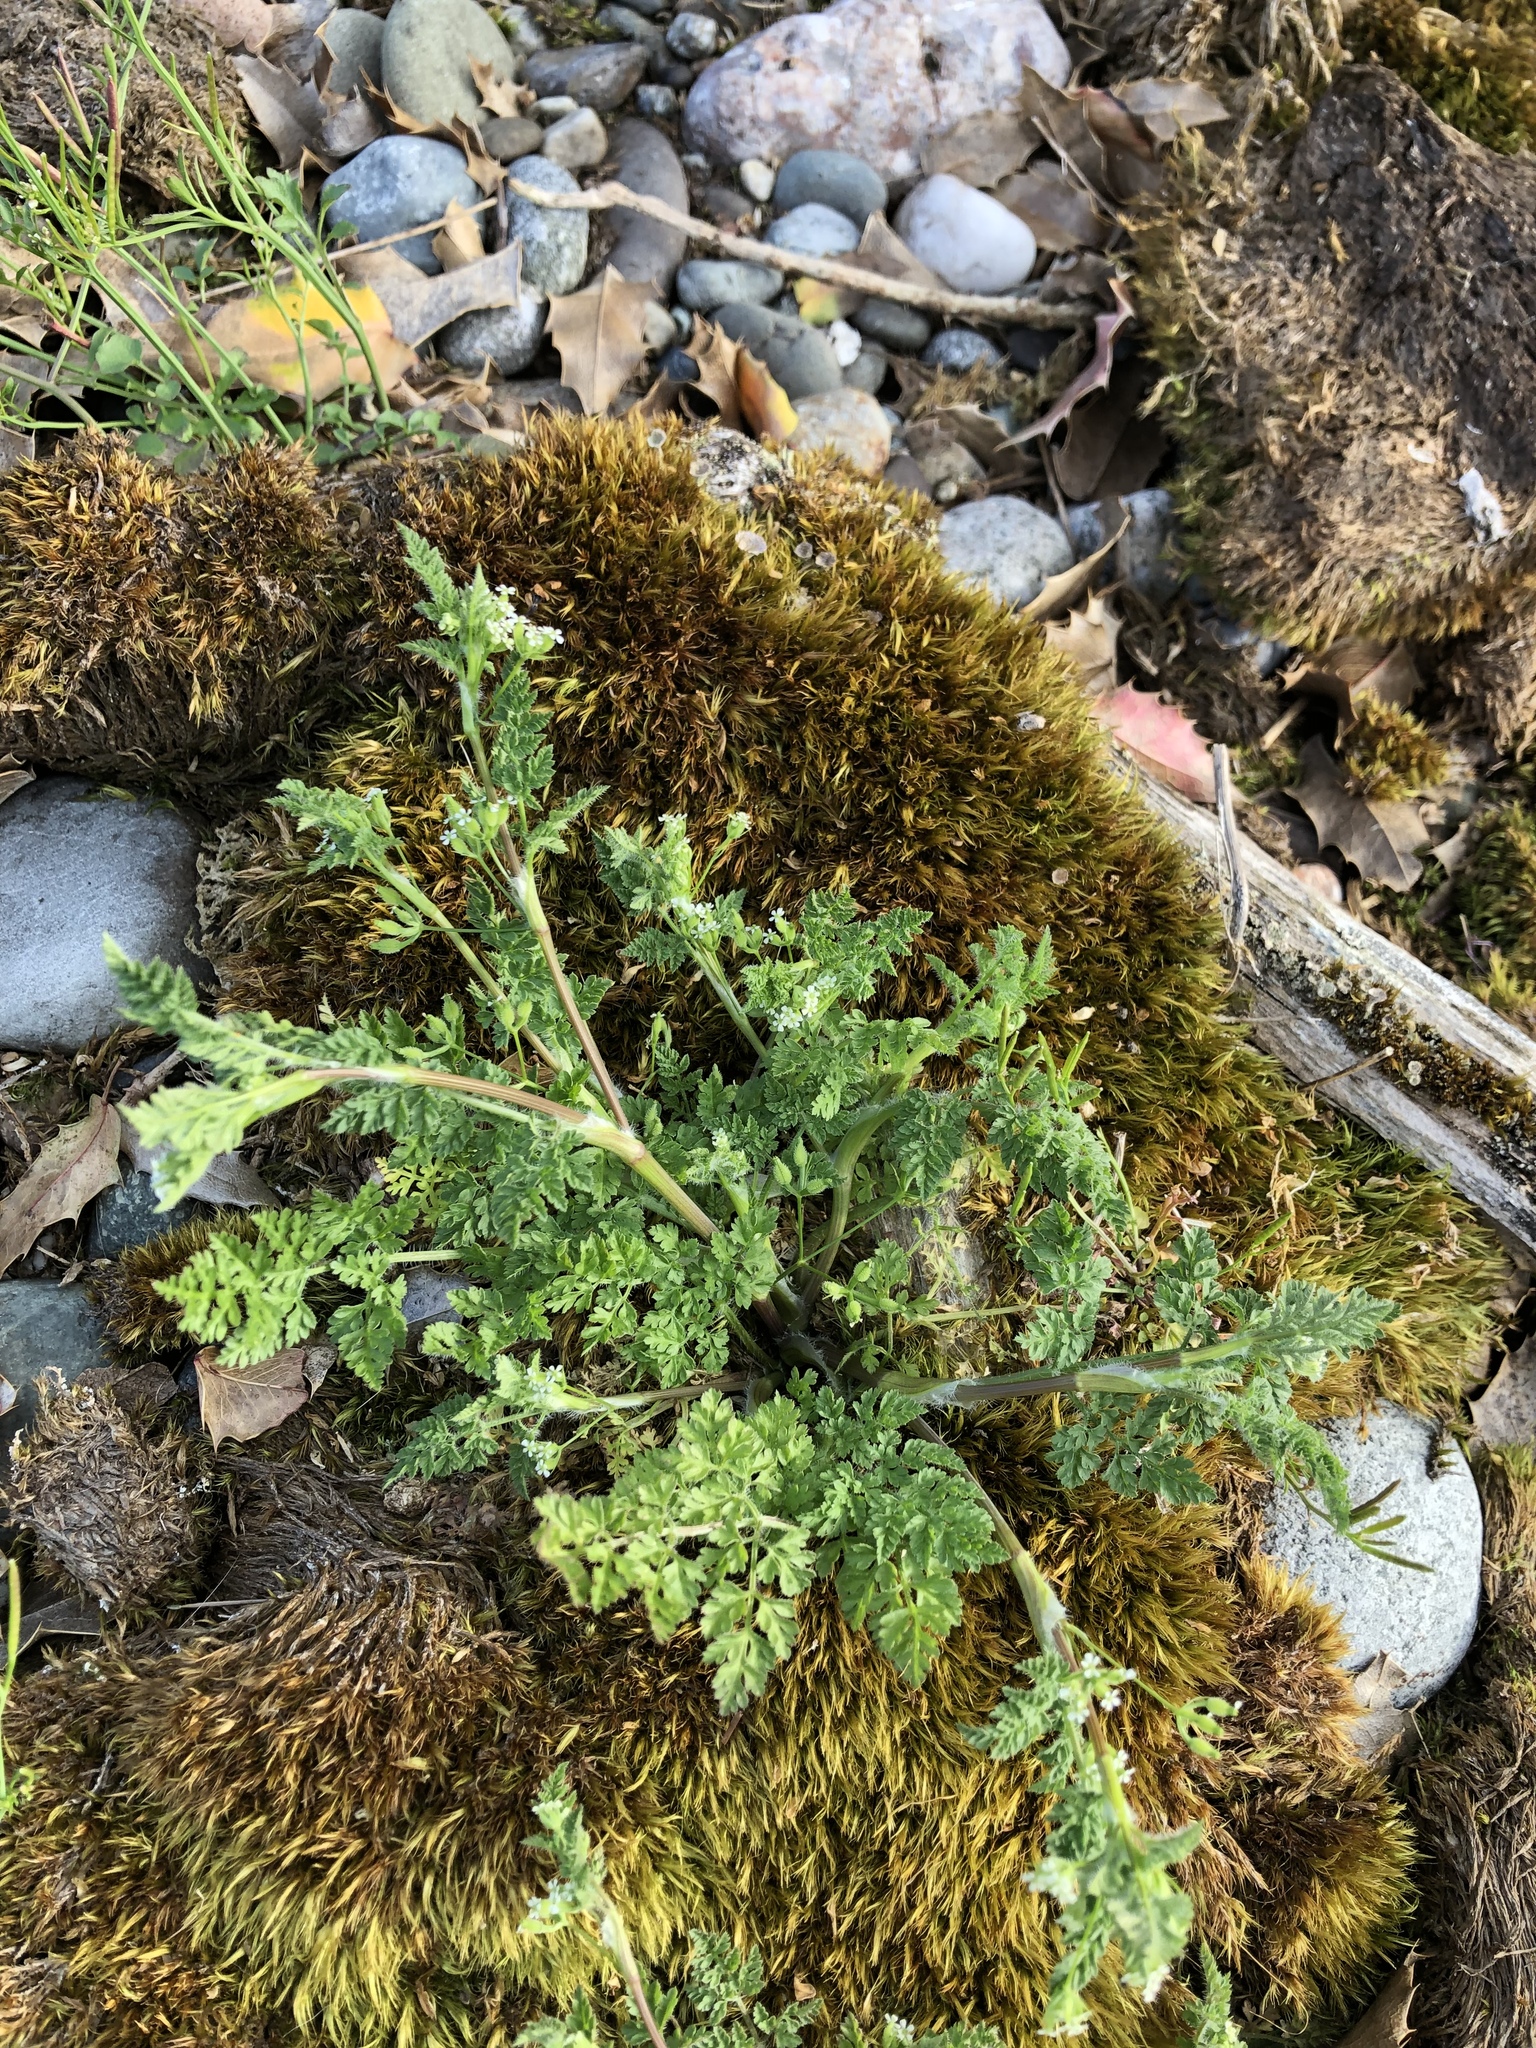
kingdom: Plantae
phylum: Tracheophyta
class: Magnoliopsida
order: Apiales
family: Apiaceae
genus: Anthriscus
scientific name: Anthriscus caucalis
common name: Bur chervil
